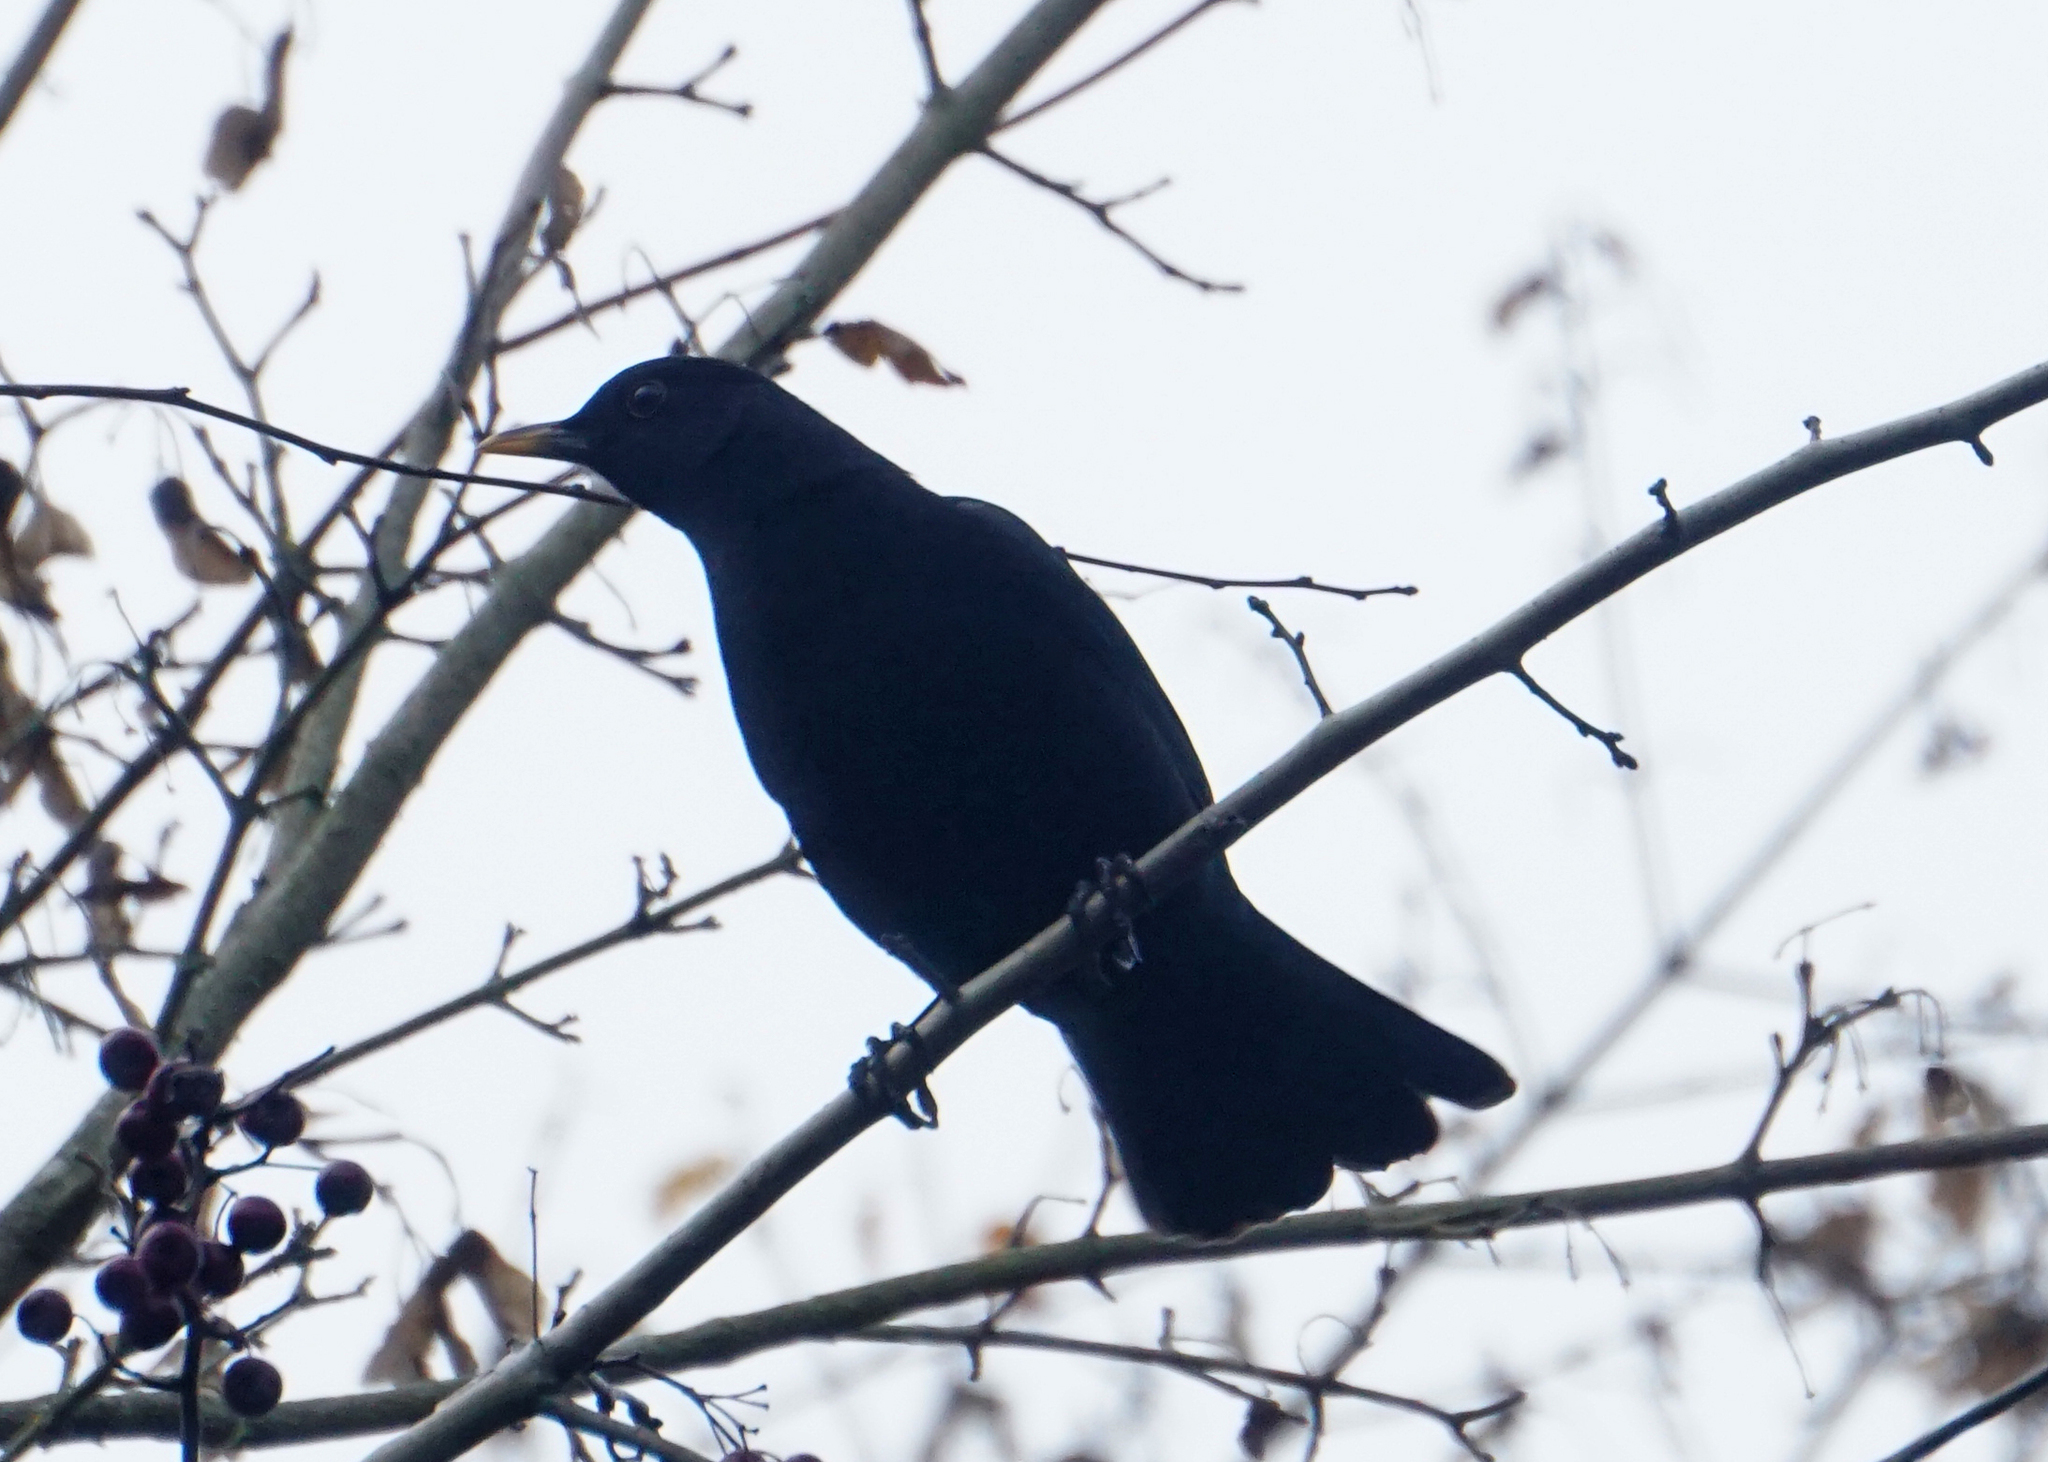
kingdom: Animalia
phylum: Chordata
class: Aves
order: Passeriformes
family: Turdidae
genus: Turdus
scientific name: Turdus merula
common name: Common blackbird
